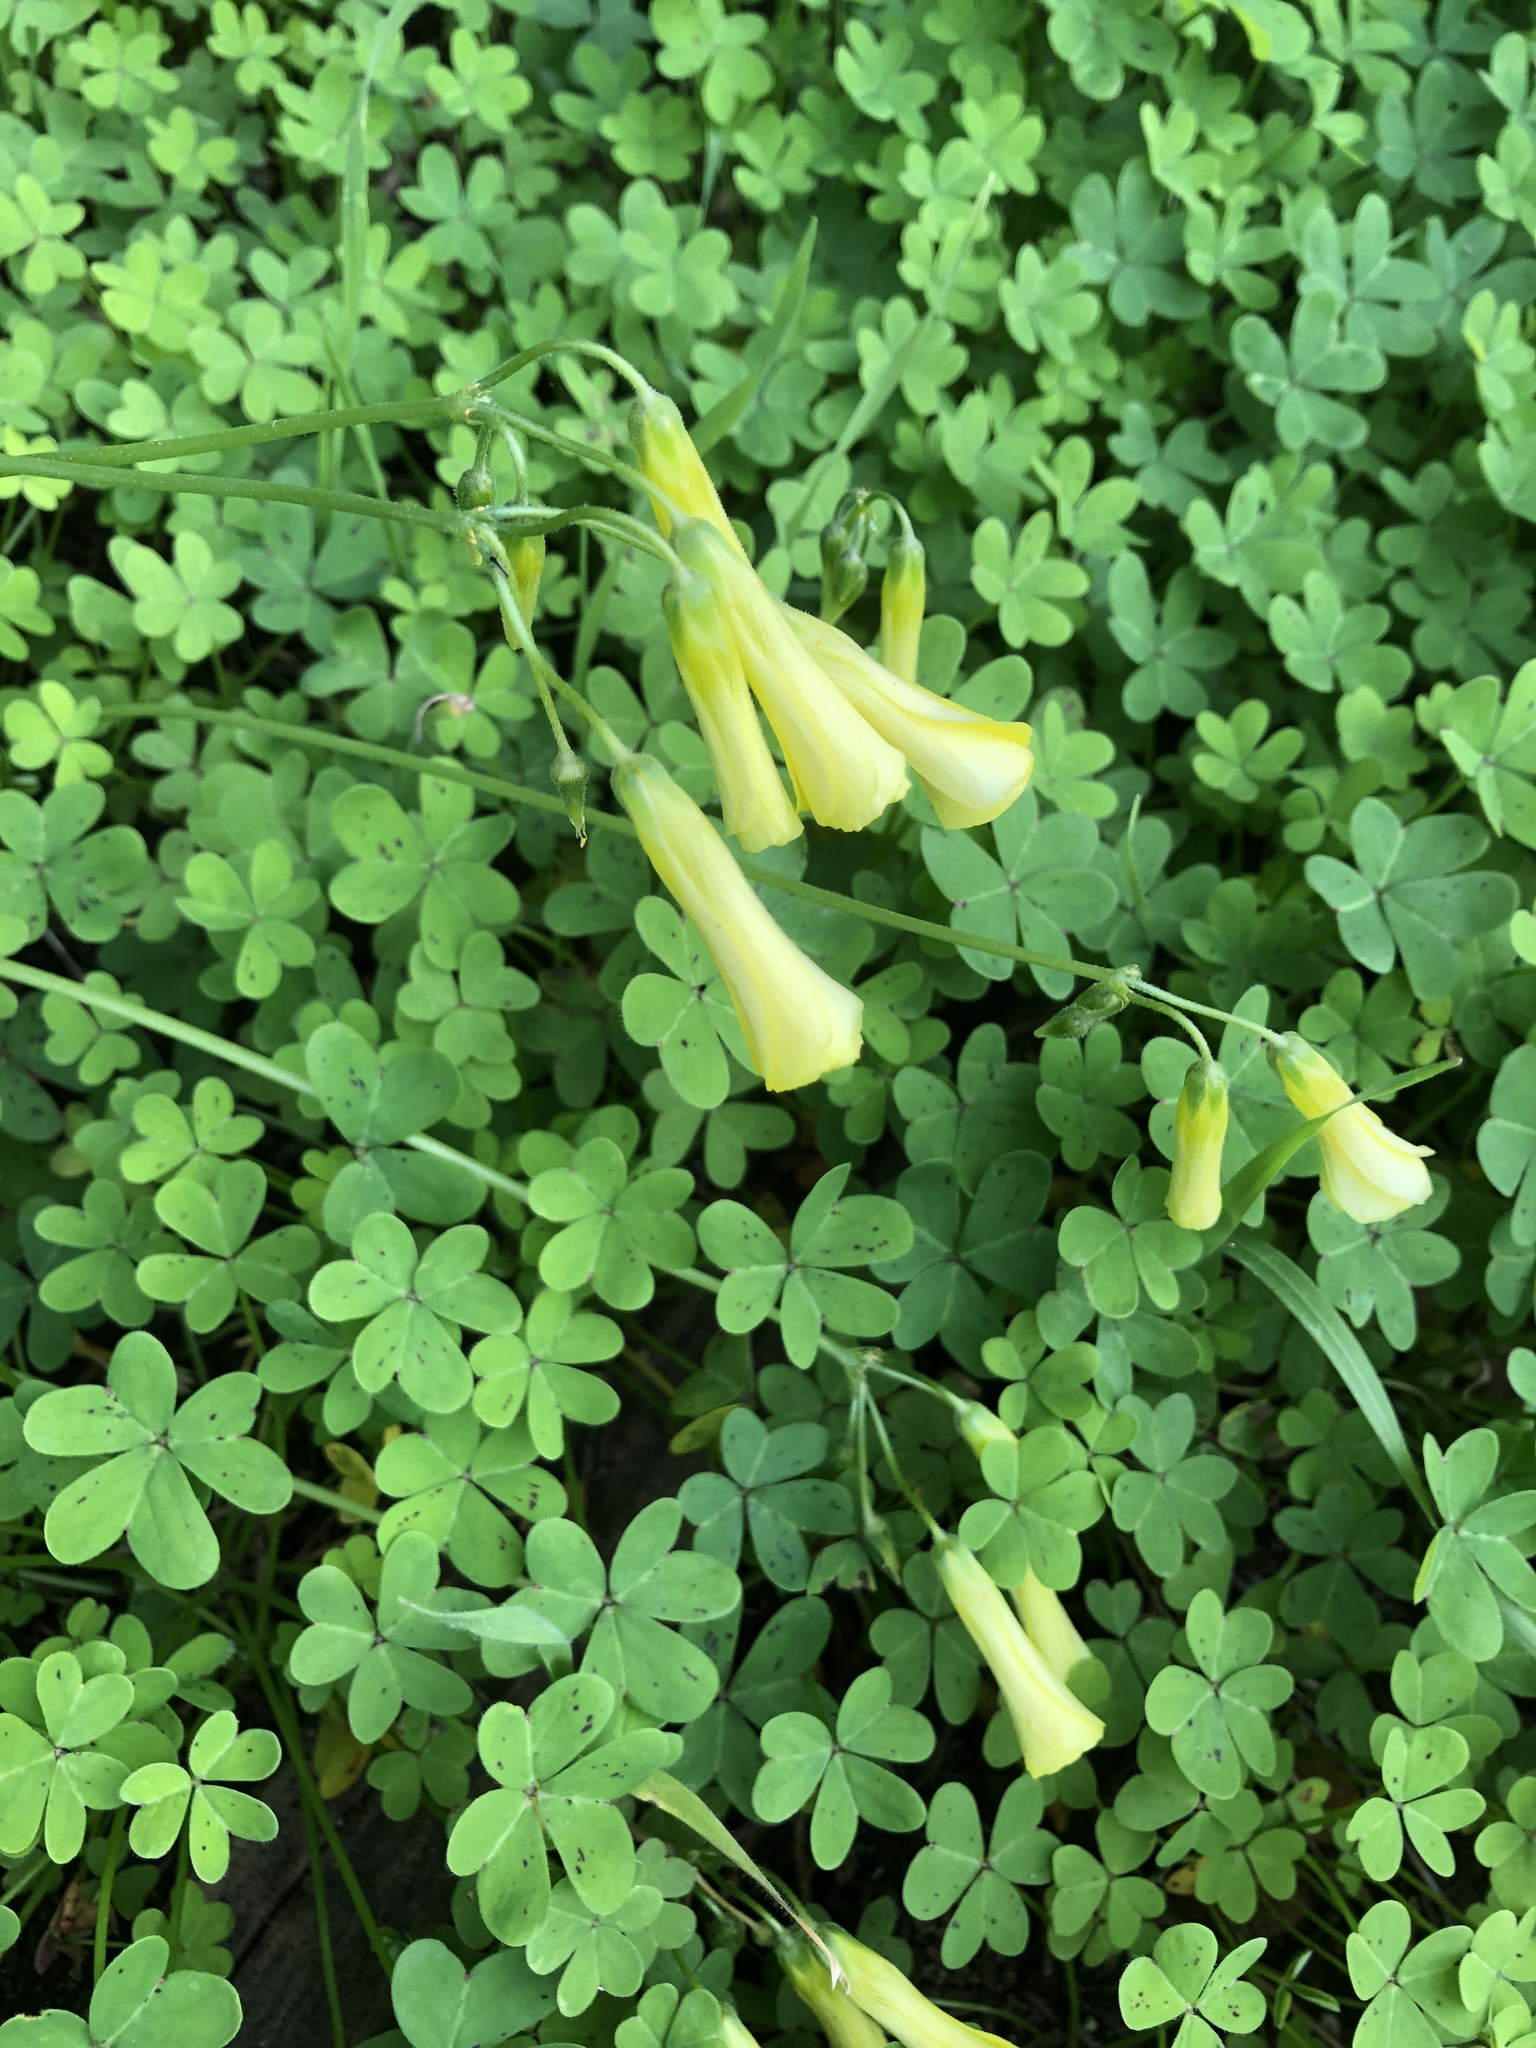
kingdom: Plantae
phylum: Tracheophyta
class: Magnoliopsida
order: Oxalidales
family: Oxalidaceae
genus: Oxalis
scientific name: Oxalis pes-caprae
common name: Bermuda-buttercup
